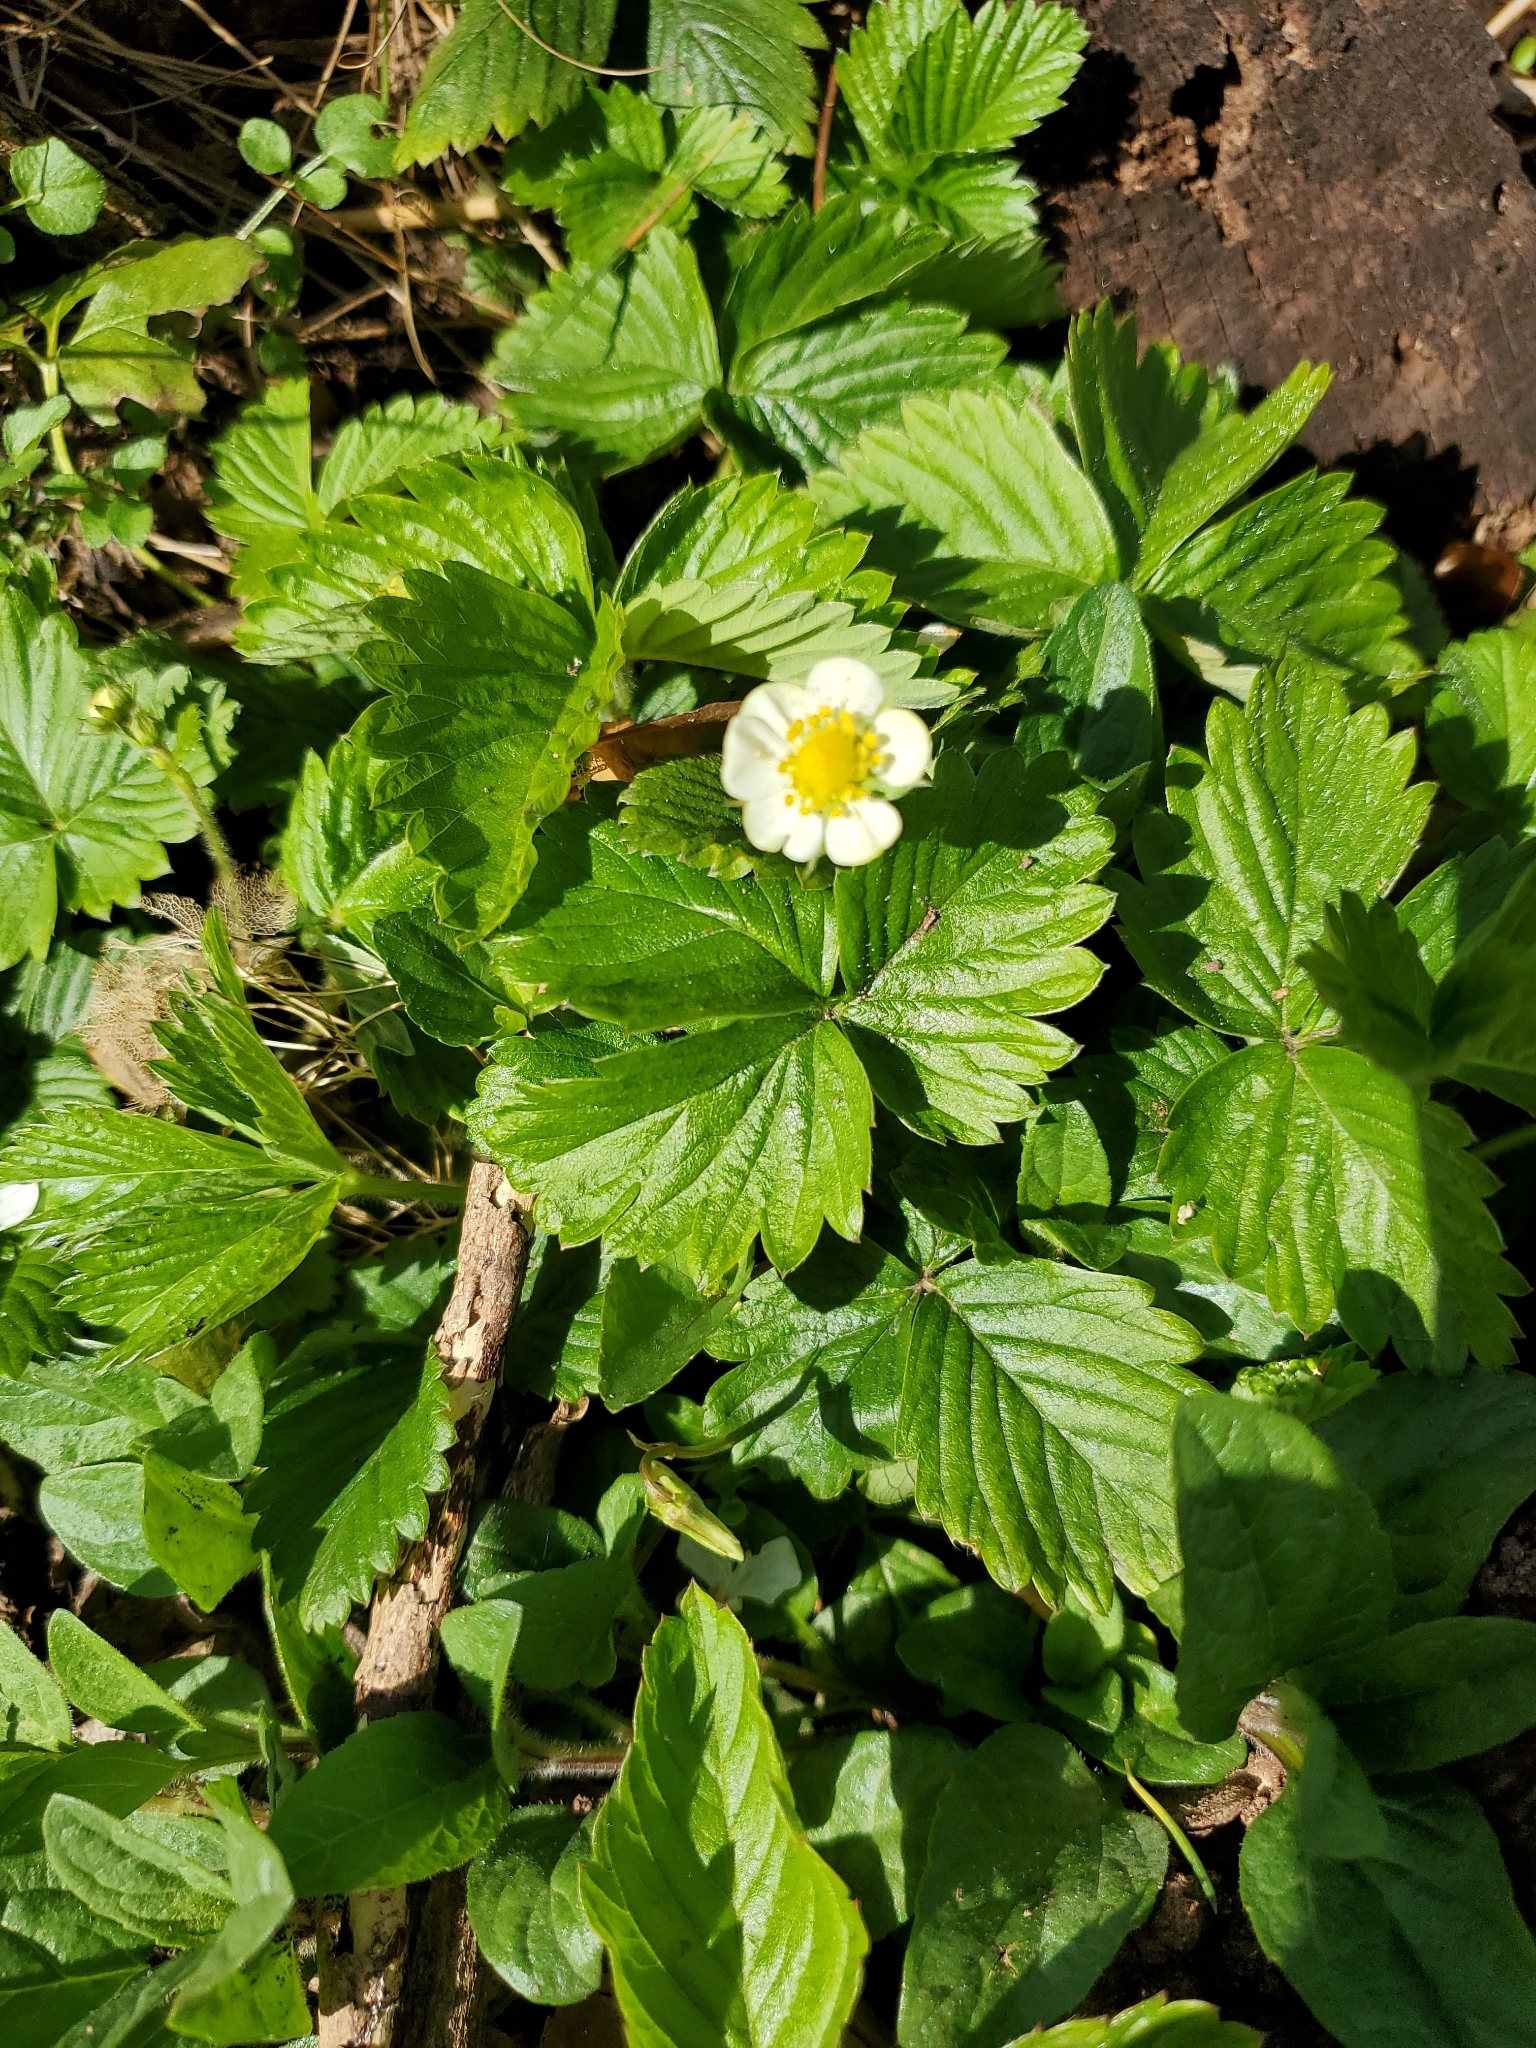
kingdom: Plantae
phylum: Tracheophyta
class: Magnoliopsida
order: Rosales
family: Rosaceae
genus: Fragaria
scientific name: Fragaria vesca
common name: Wild strawberry
